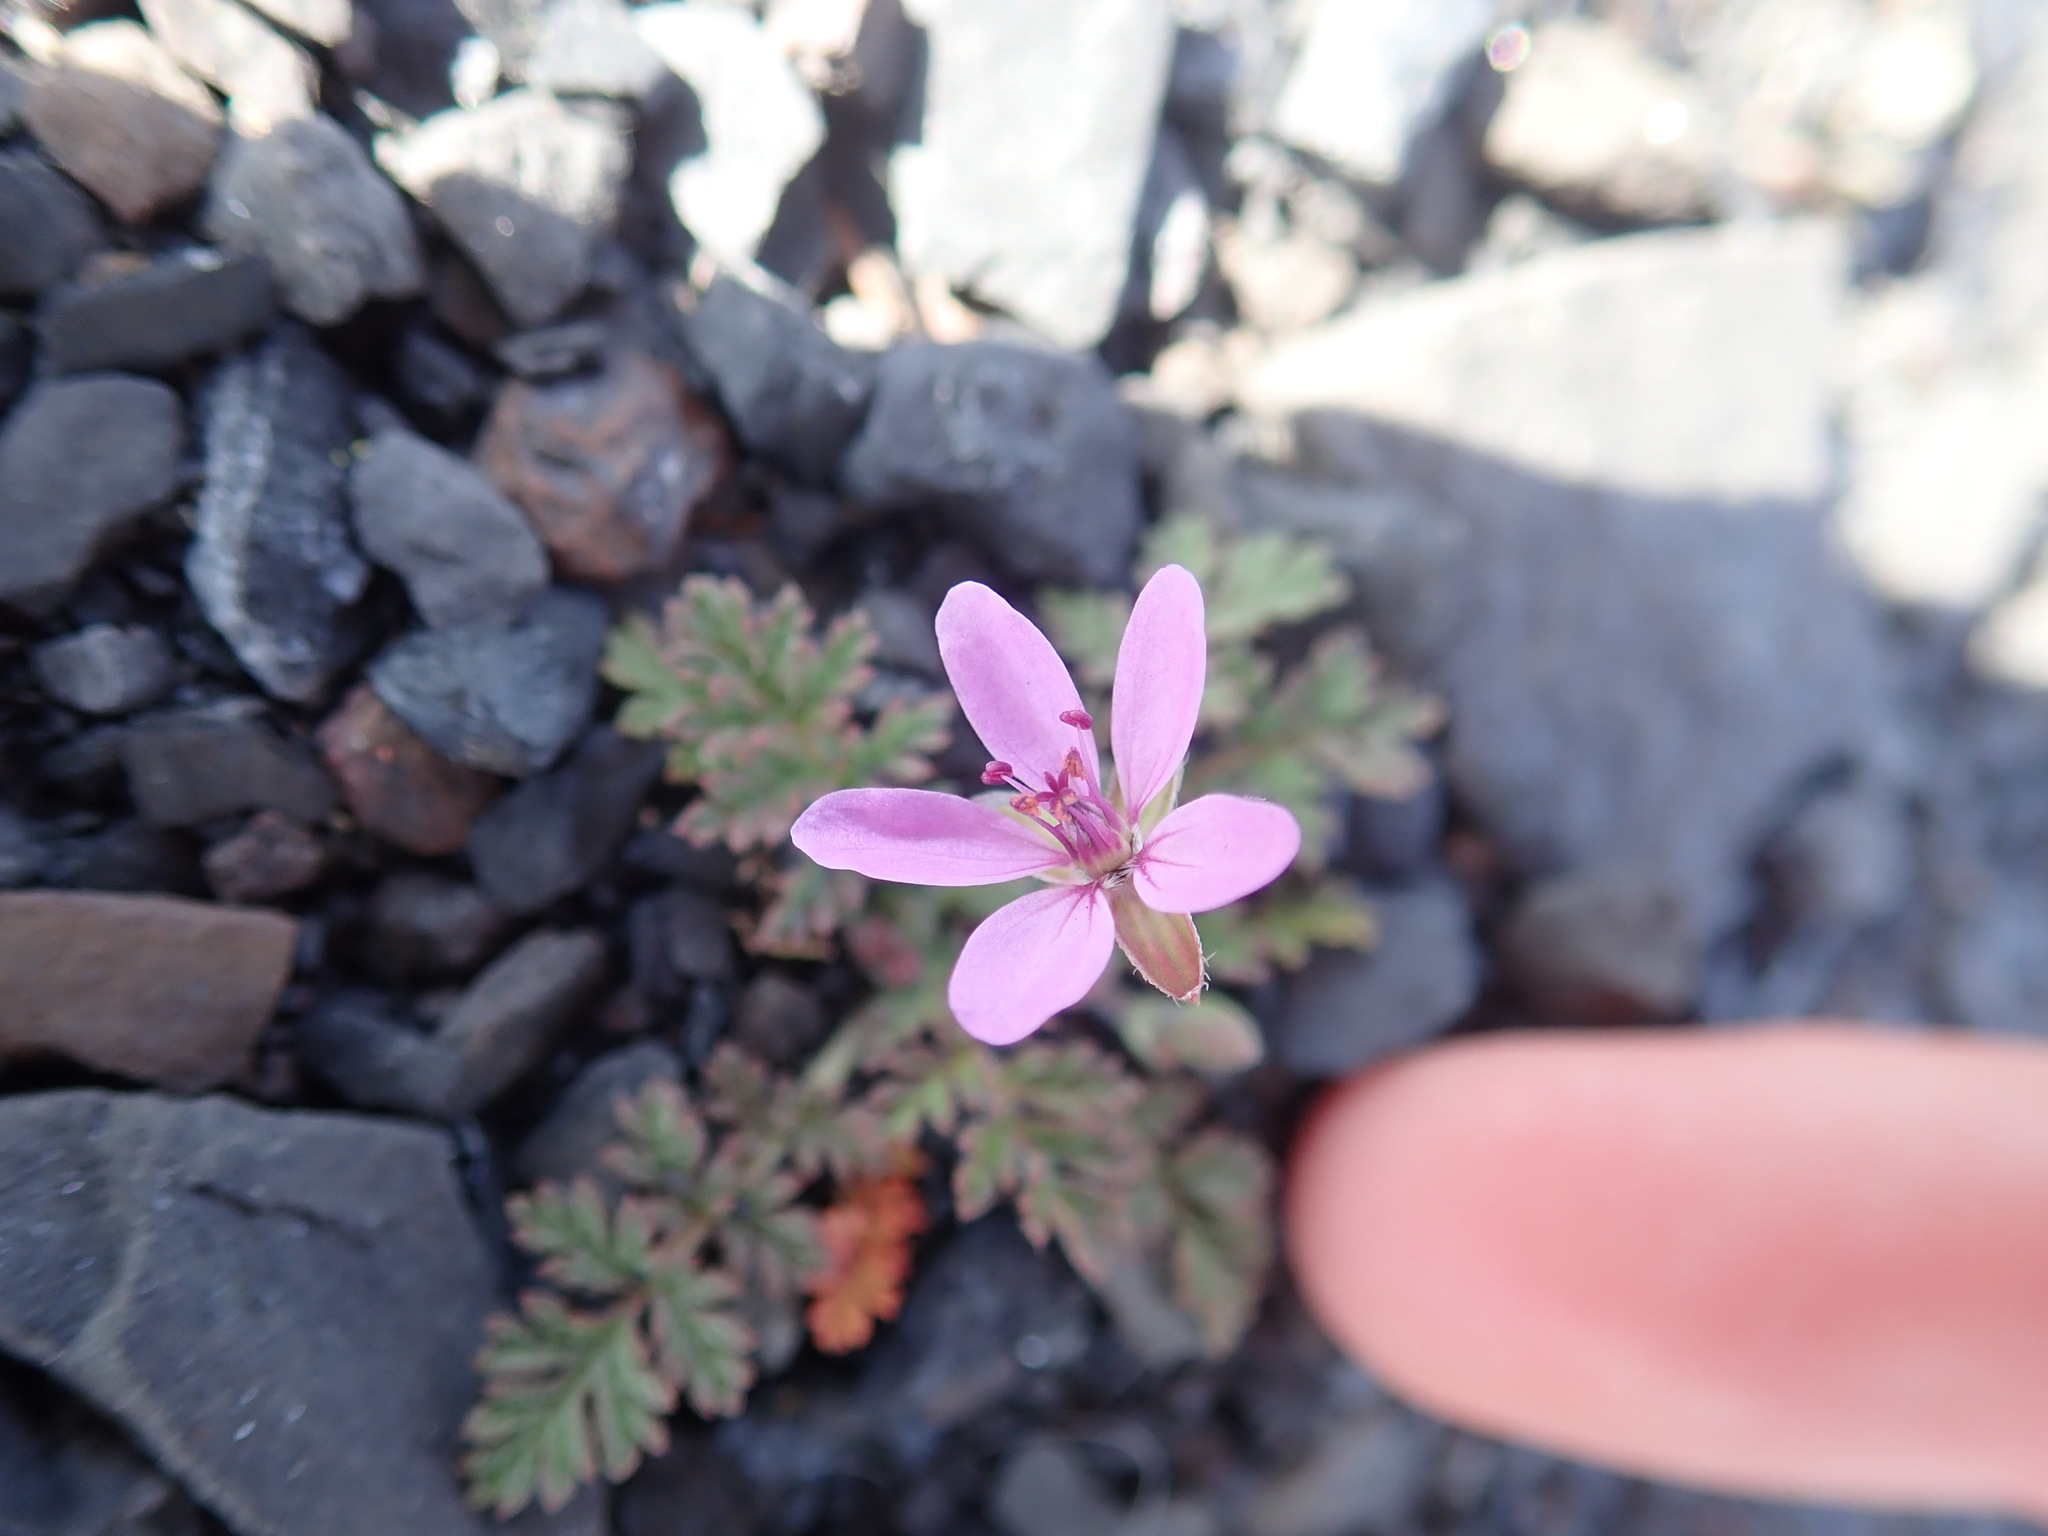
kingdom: Plantae
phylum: Tracheophyta
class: Magnoliopsida
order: Geraniales
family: Geraniaceae
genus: Erodium
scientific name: Erodium cicutarium
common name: Common stork's-bill
